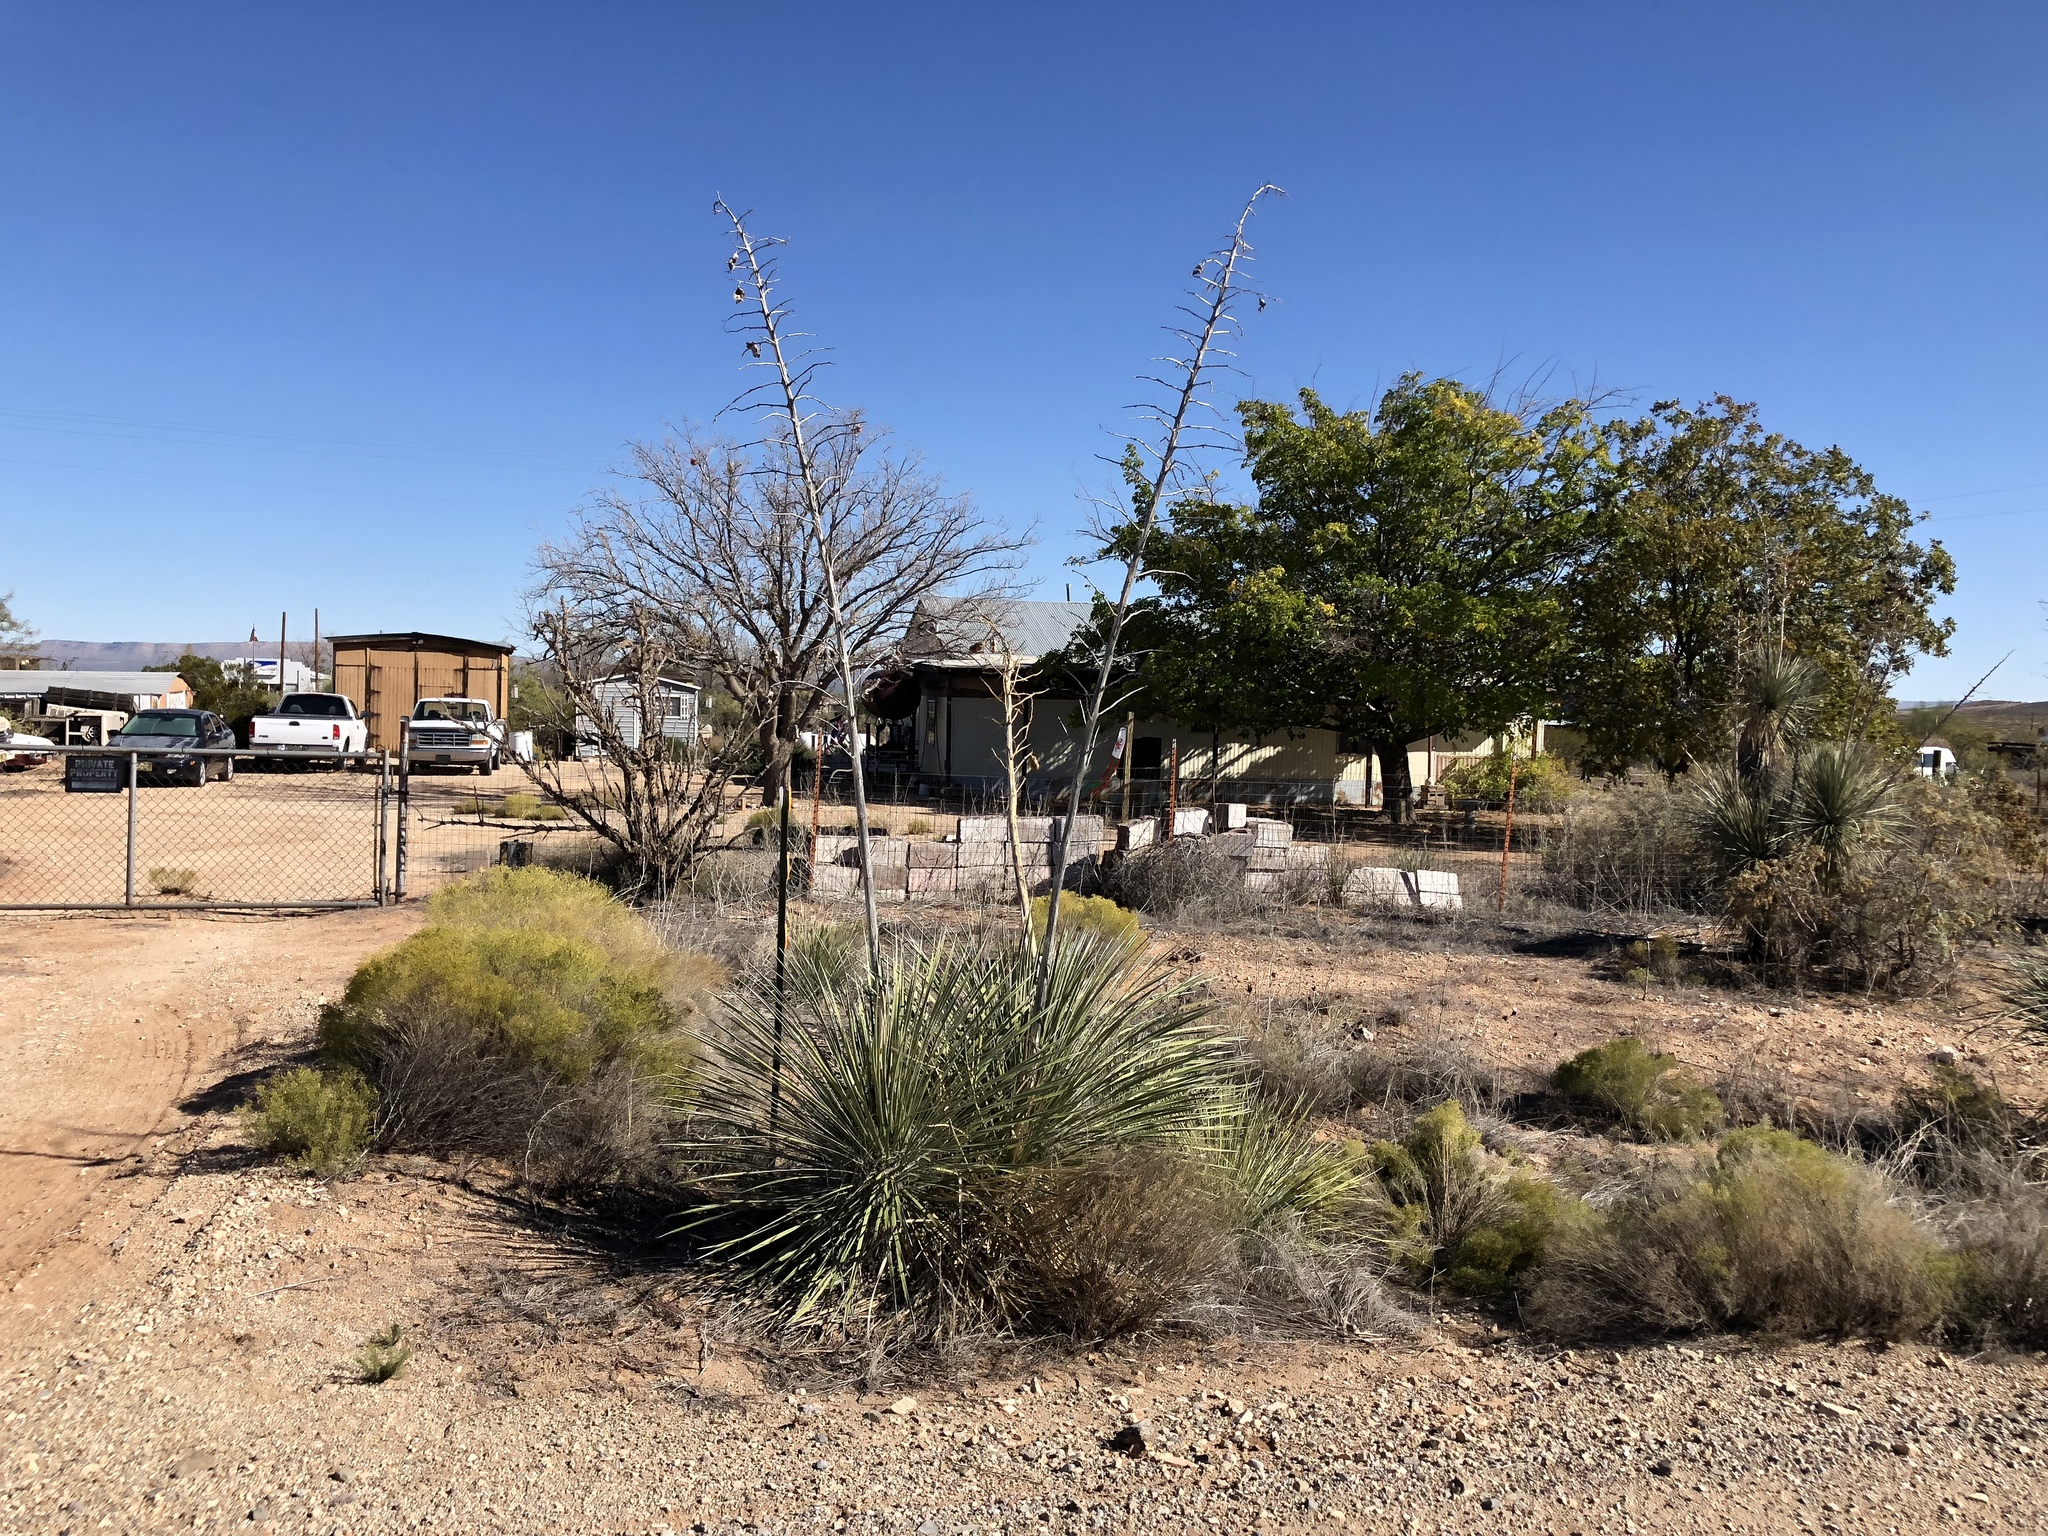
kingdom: Plantae
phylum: Tracheophyta
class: Liliopsida
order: Asparagales
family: Asparagaceae
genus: Yucca
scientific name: Yucca elata
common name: Palmella
